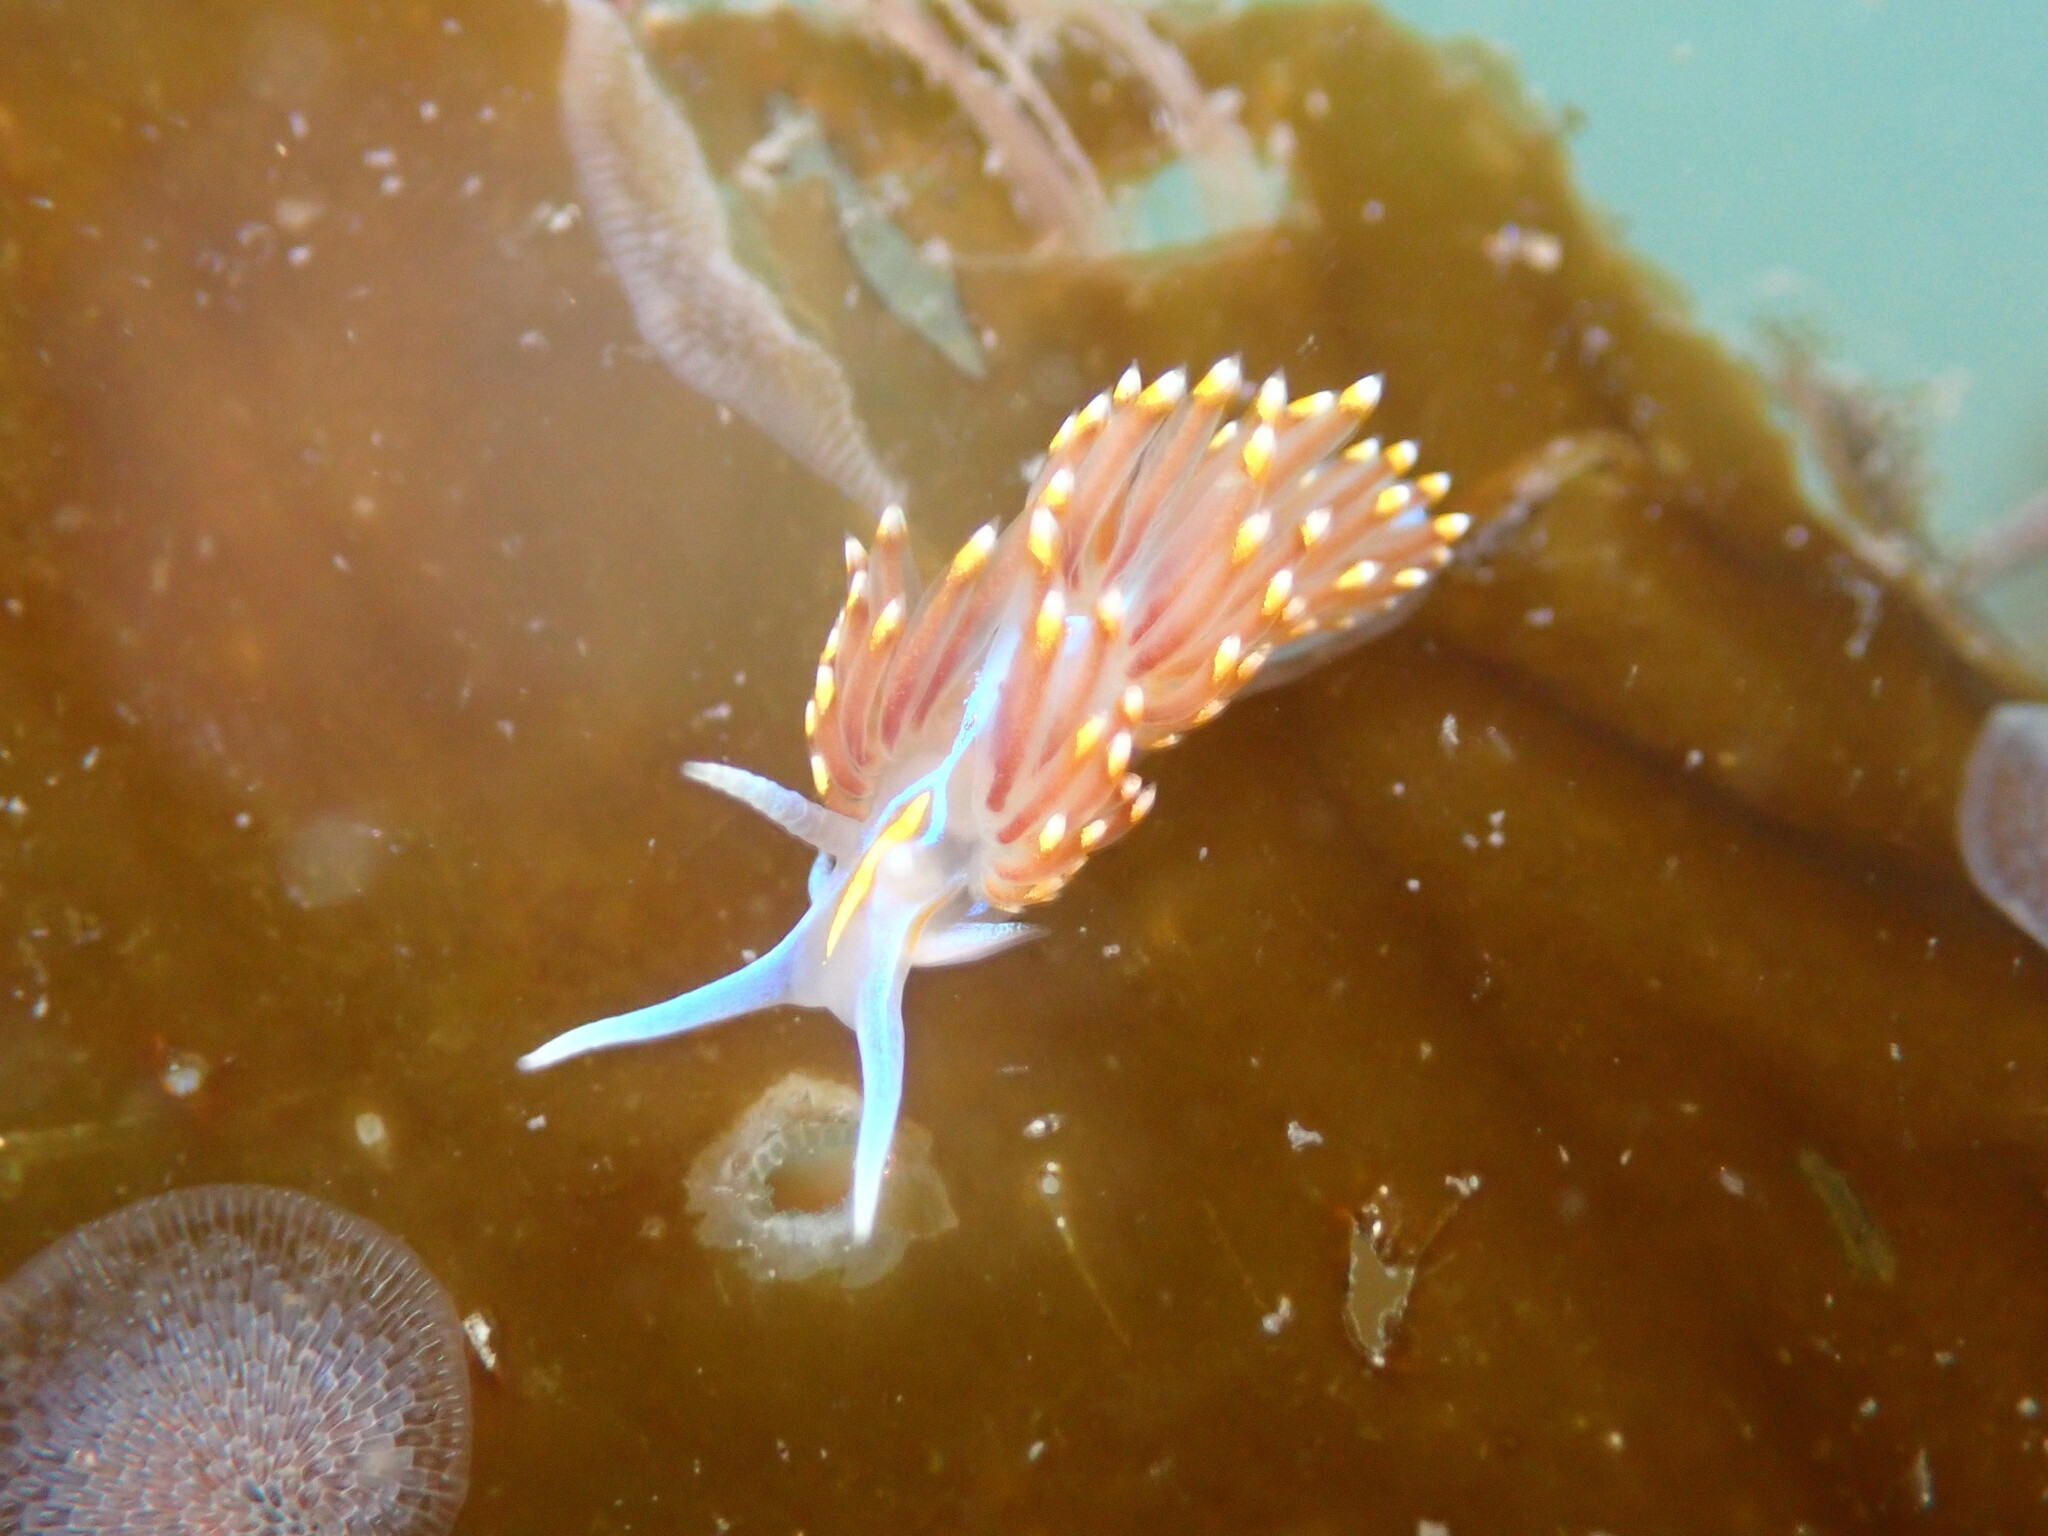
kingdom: Animalia
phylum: Mollusca
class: Gastropoda
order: Nudibranchia
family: Myrrhinidae
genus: Hermissenda
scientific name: Hermissenda opalescens
